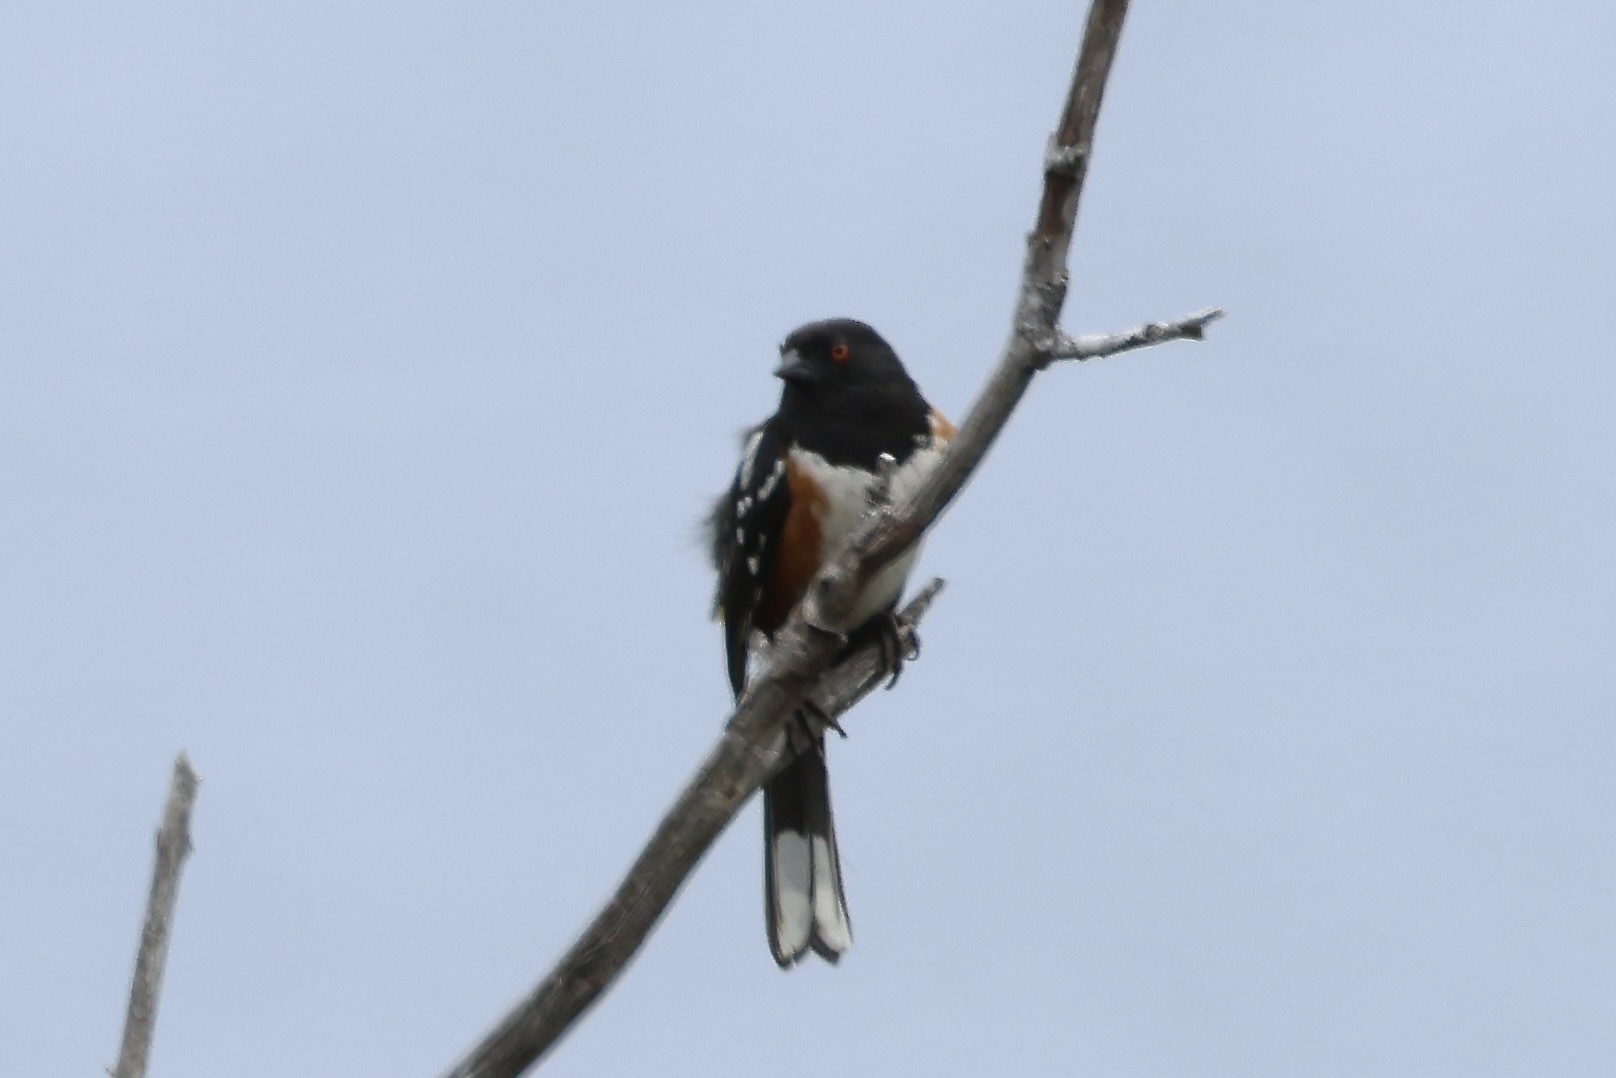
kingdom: Animalia
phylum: Chordata
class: Aves
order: Passeriformes
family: Passerellidae
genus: Pipilo
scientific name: Pipilo maculatus
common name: Spotted towhee
